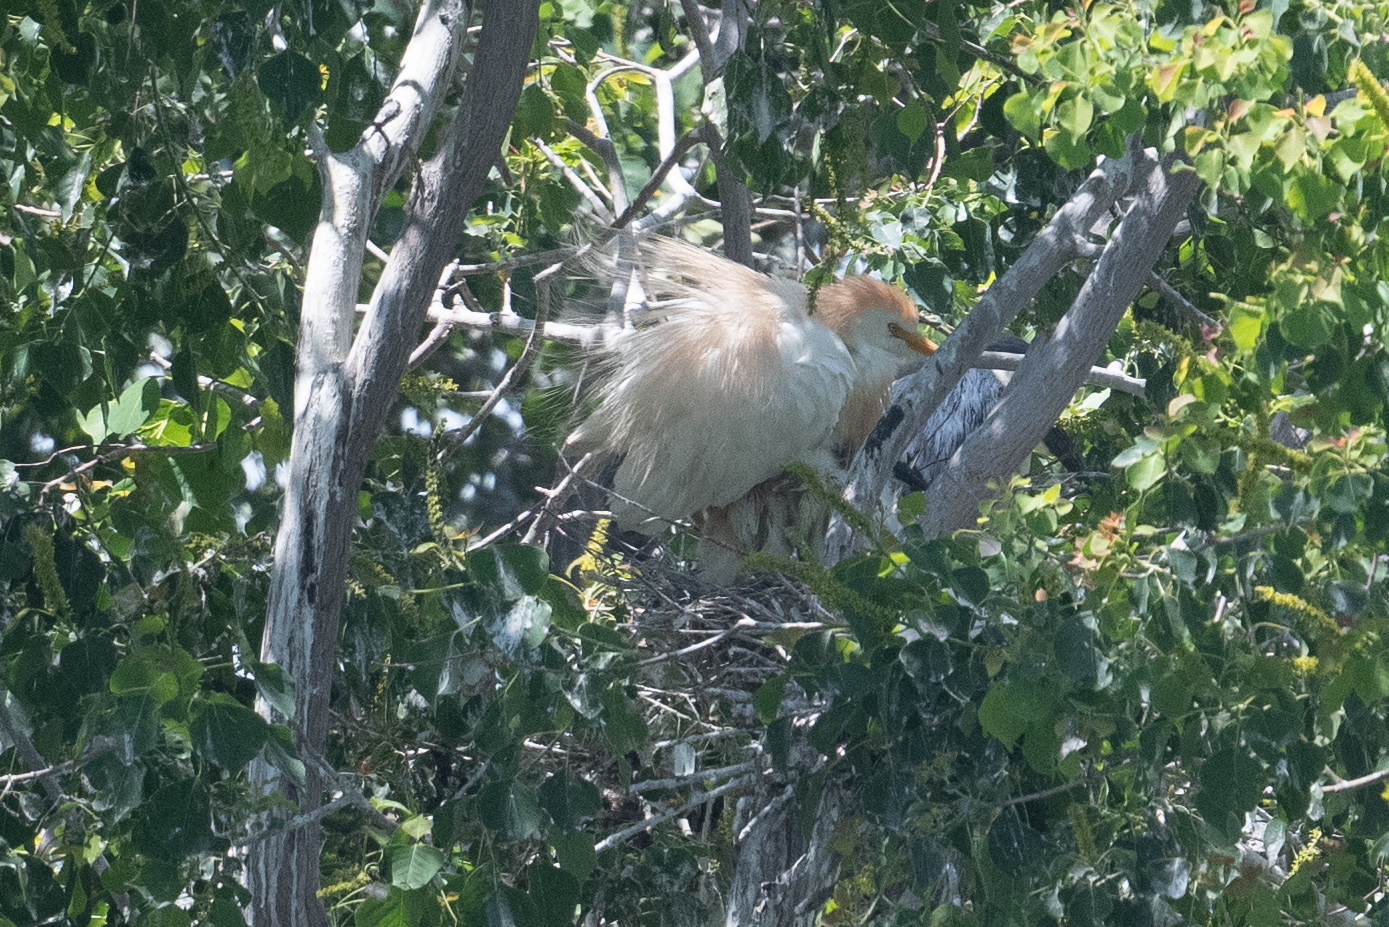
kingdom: Animalia
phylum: Chordata
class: Aves
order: Pelecaniformes
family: Ardeidae
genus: Bubulcus
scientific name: Bubulcus ibis
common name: Cattle egret
